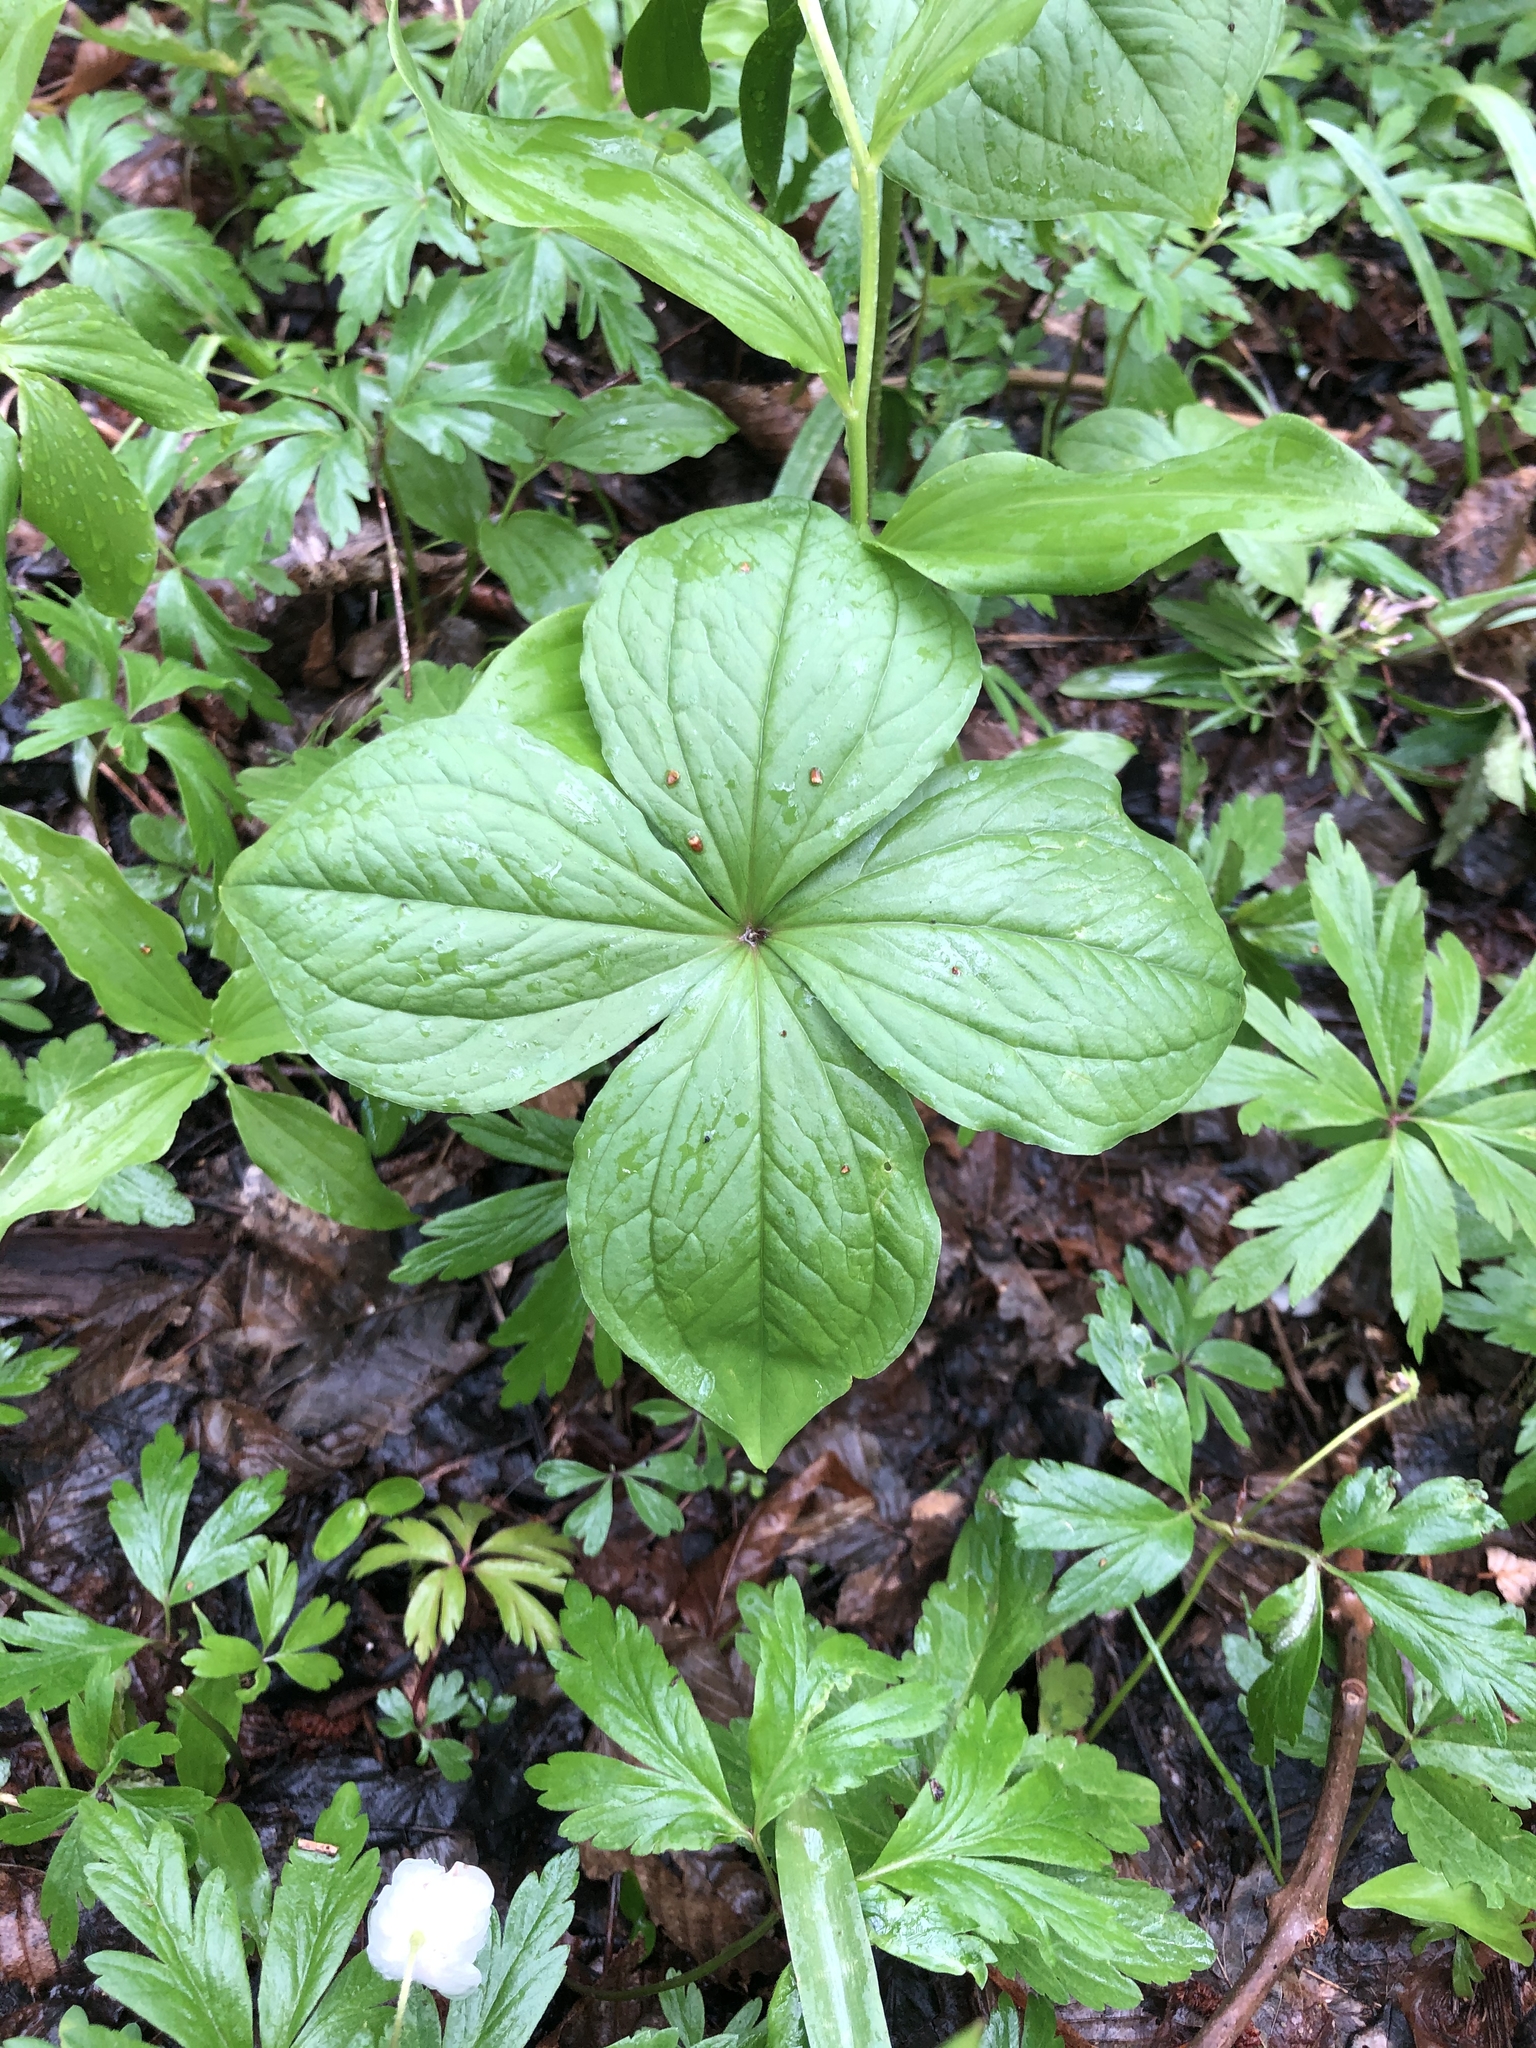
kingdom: Plantae
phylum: Tracheophyta
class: Liliopsida
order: Liliales
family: Melanthiaceae
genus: Paris
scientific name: Paris quadrifolia
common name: Herb-paris
